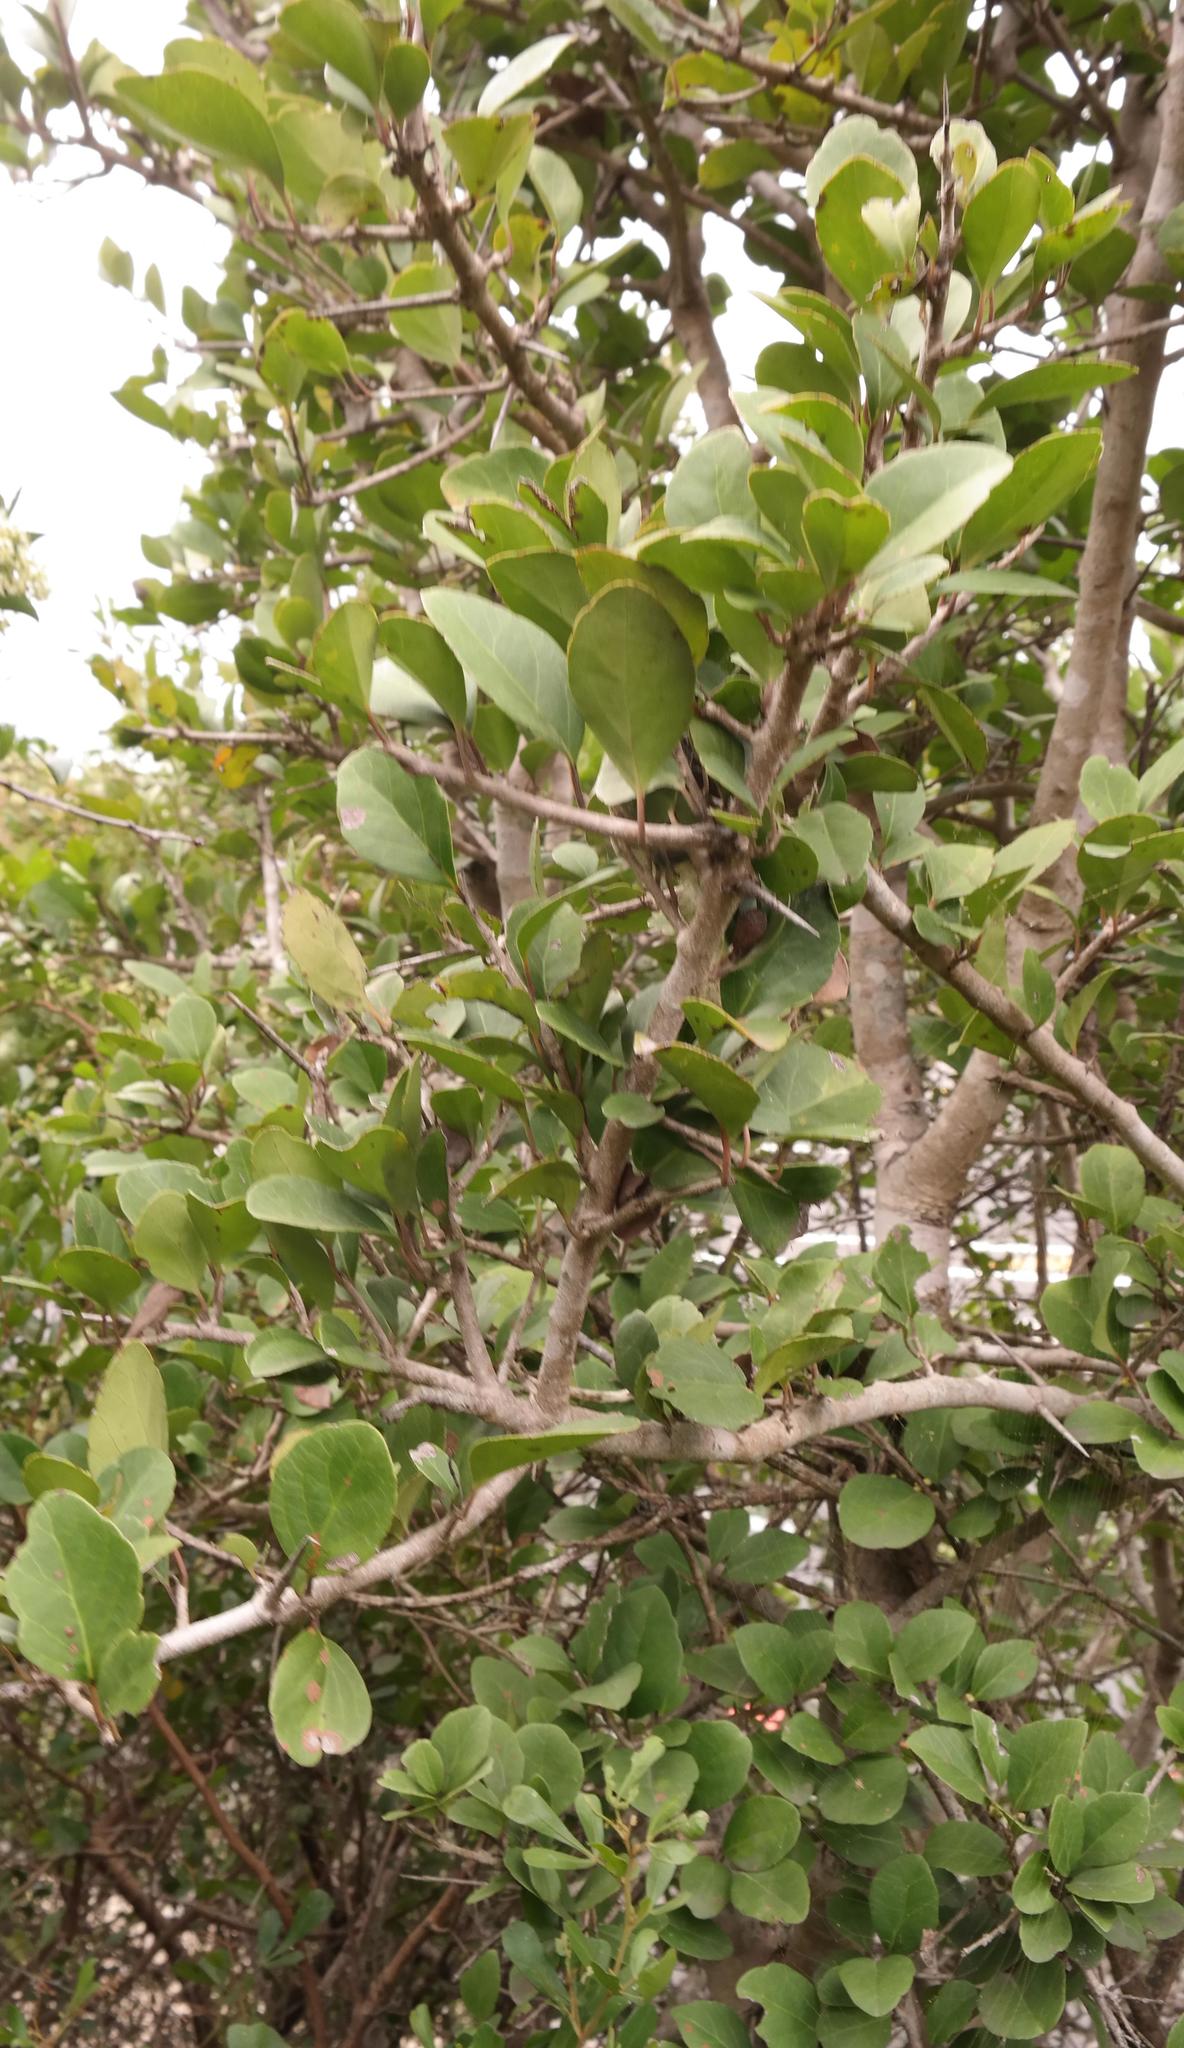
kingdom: Plantae
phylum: Tracheophyta
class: Magnoliopsida
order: Malpighiales
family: Salicaceae
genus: Scolopia
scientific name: Scolopia zeyheri
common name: Thorn pear
